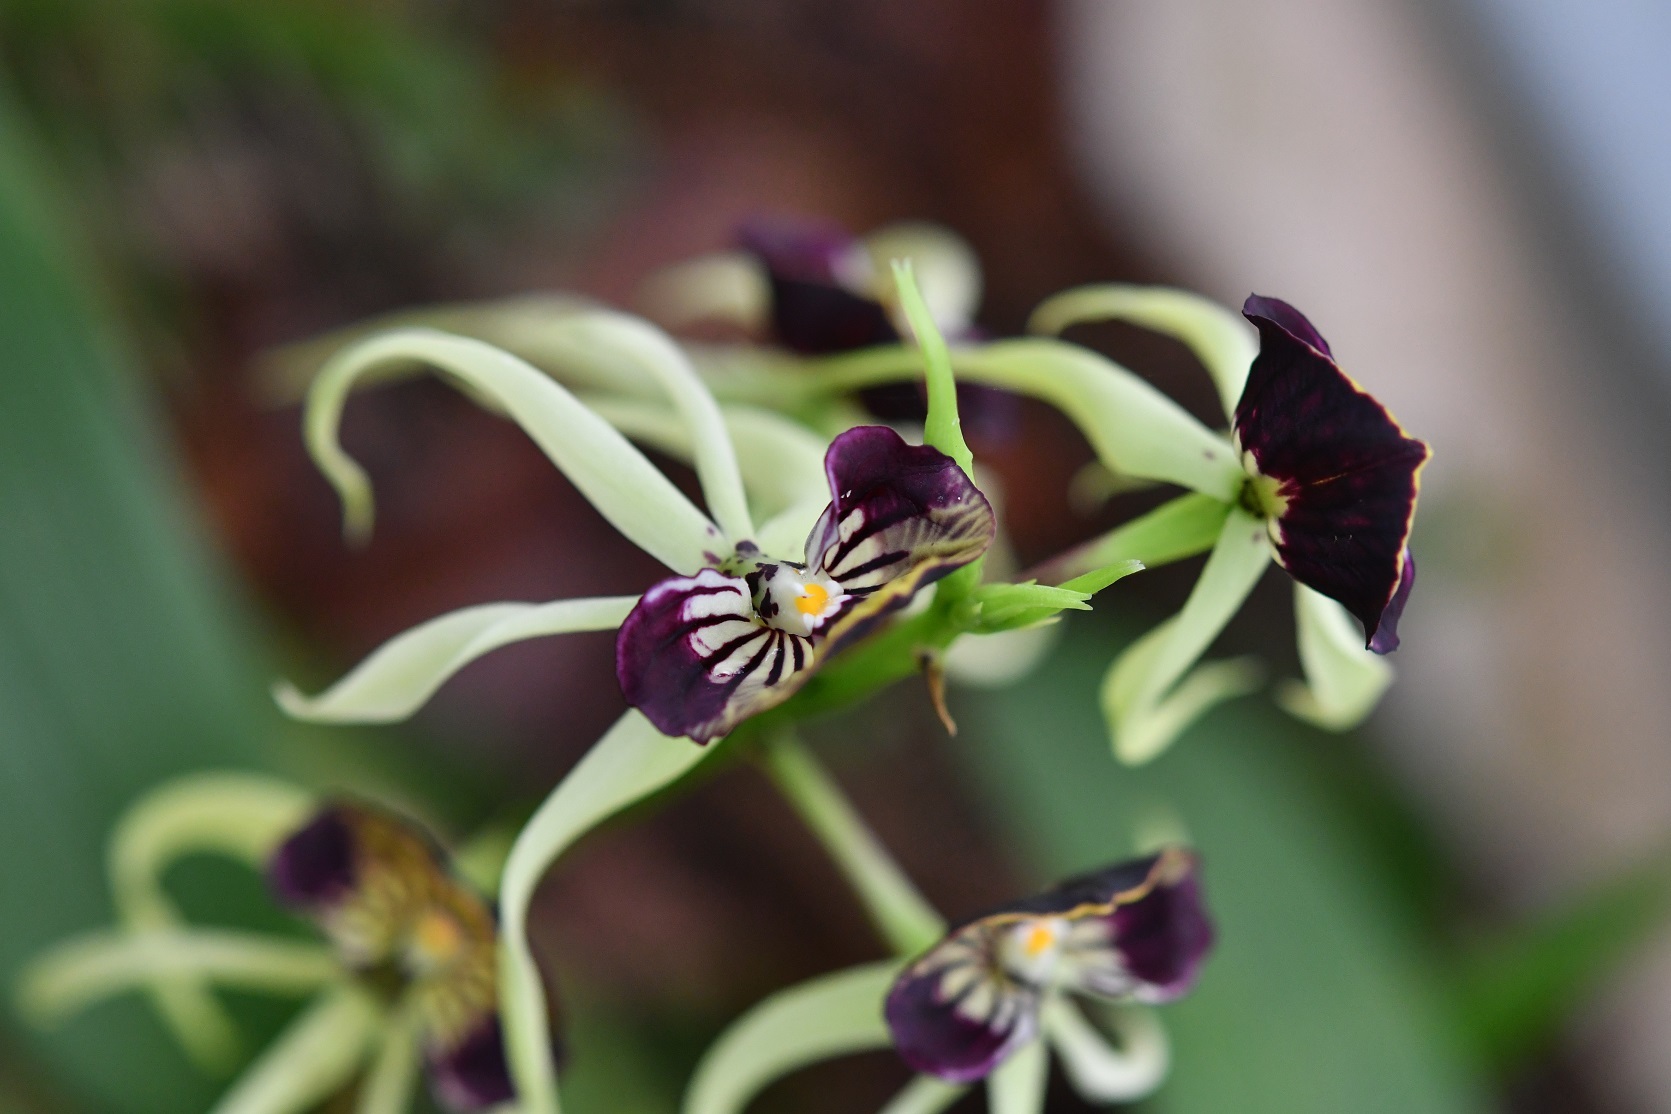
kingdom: Plantae
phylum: Tracheophyta
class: Liliopsida
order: Asparagales
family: Orchidaceae
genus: Prosthechea
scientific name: Prosthechea cochleata
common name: Clamshell orchid
